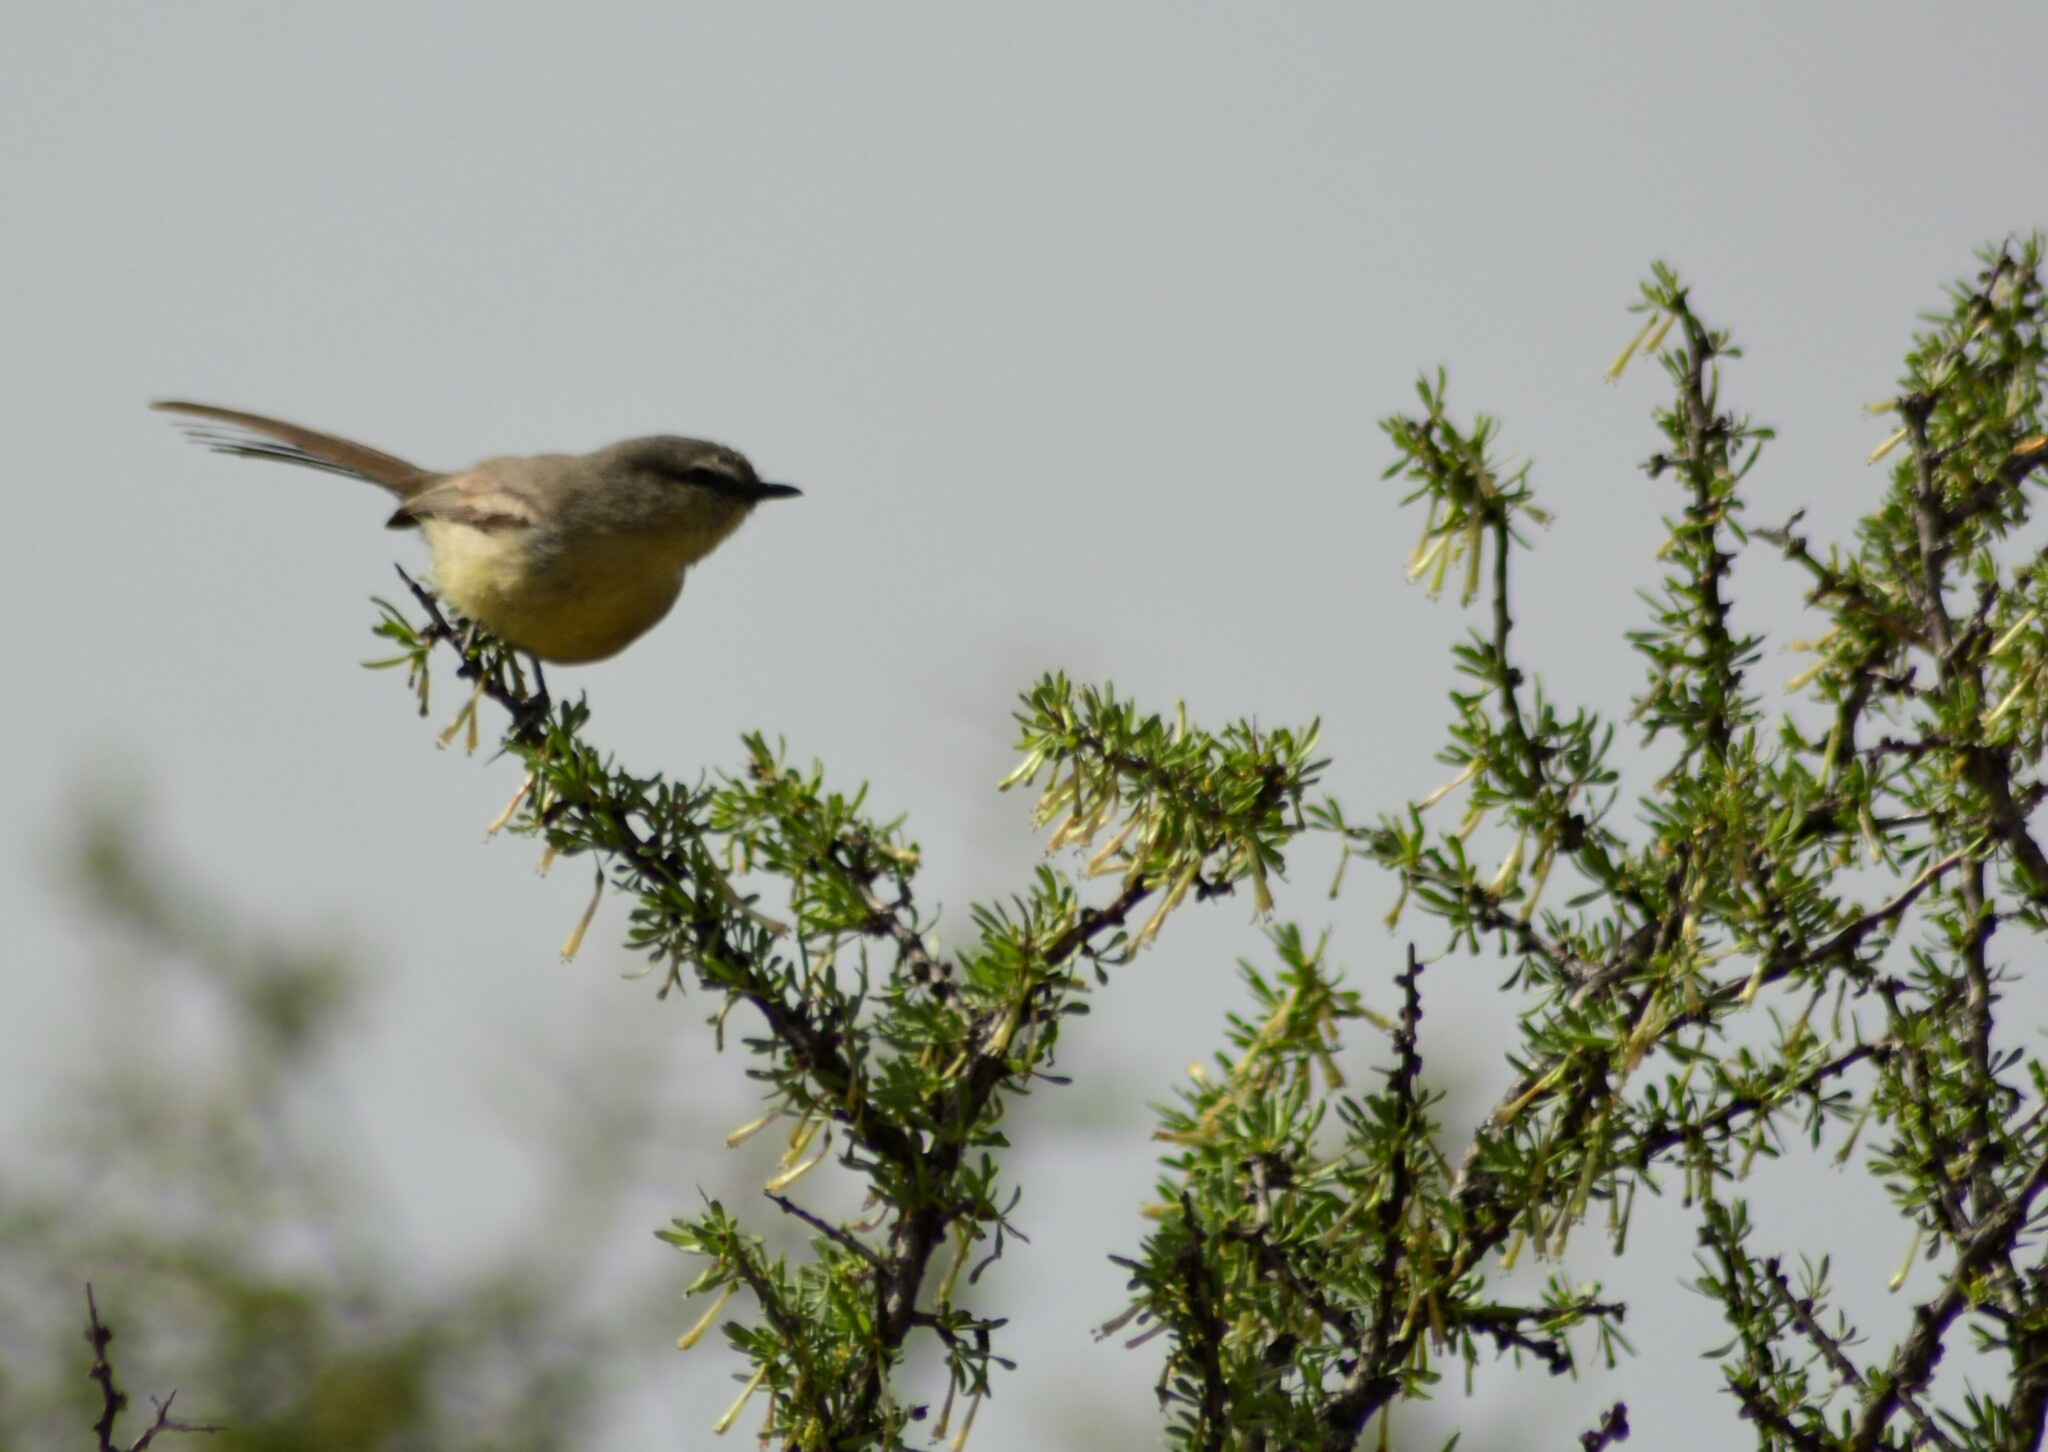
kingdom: Animalia
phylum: Chordata
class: Aves
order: Passeriformes
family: Tyrannidae
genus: Stigmatura
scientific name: Stigmatura budytoides
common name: Greater wagtail-tyrant
